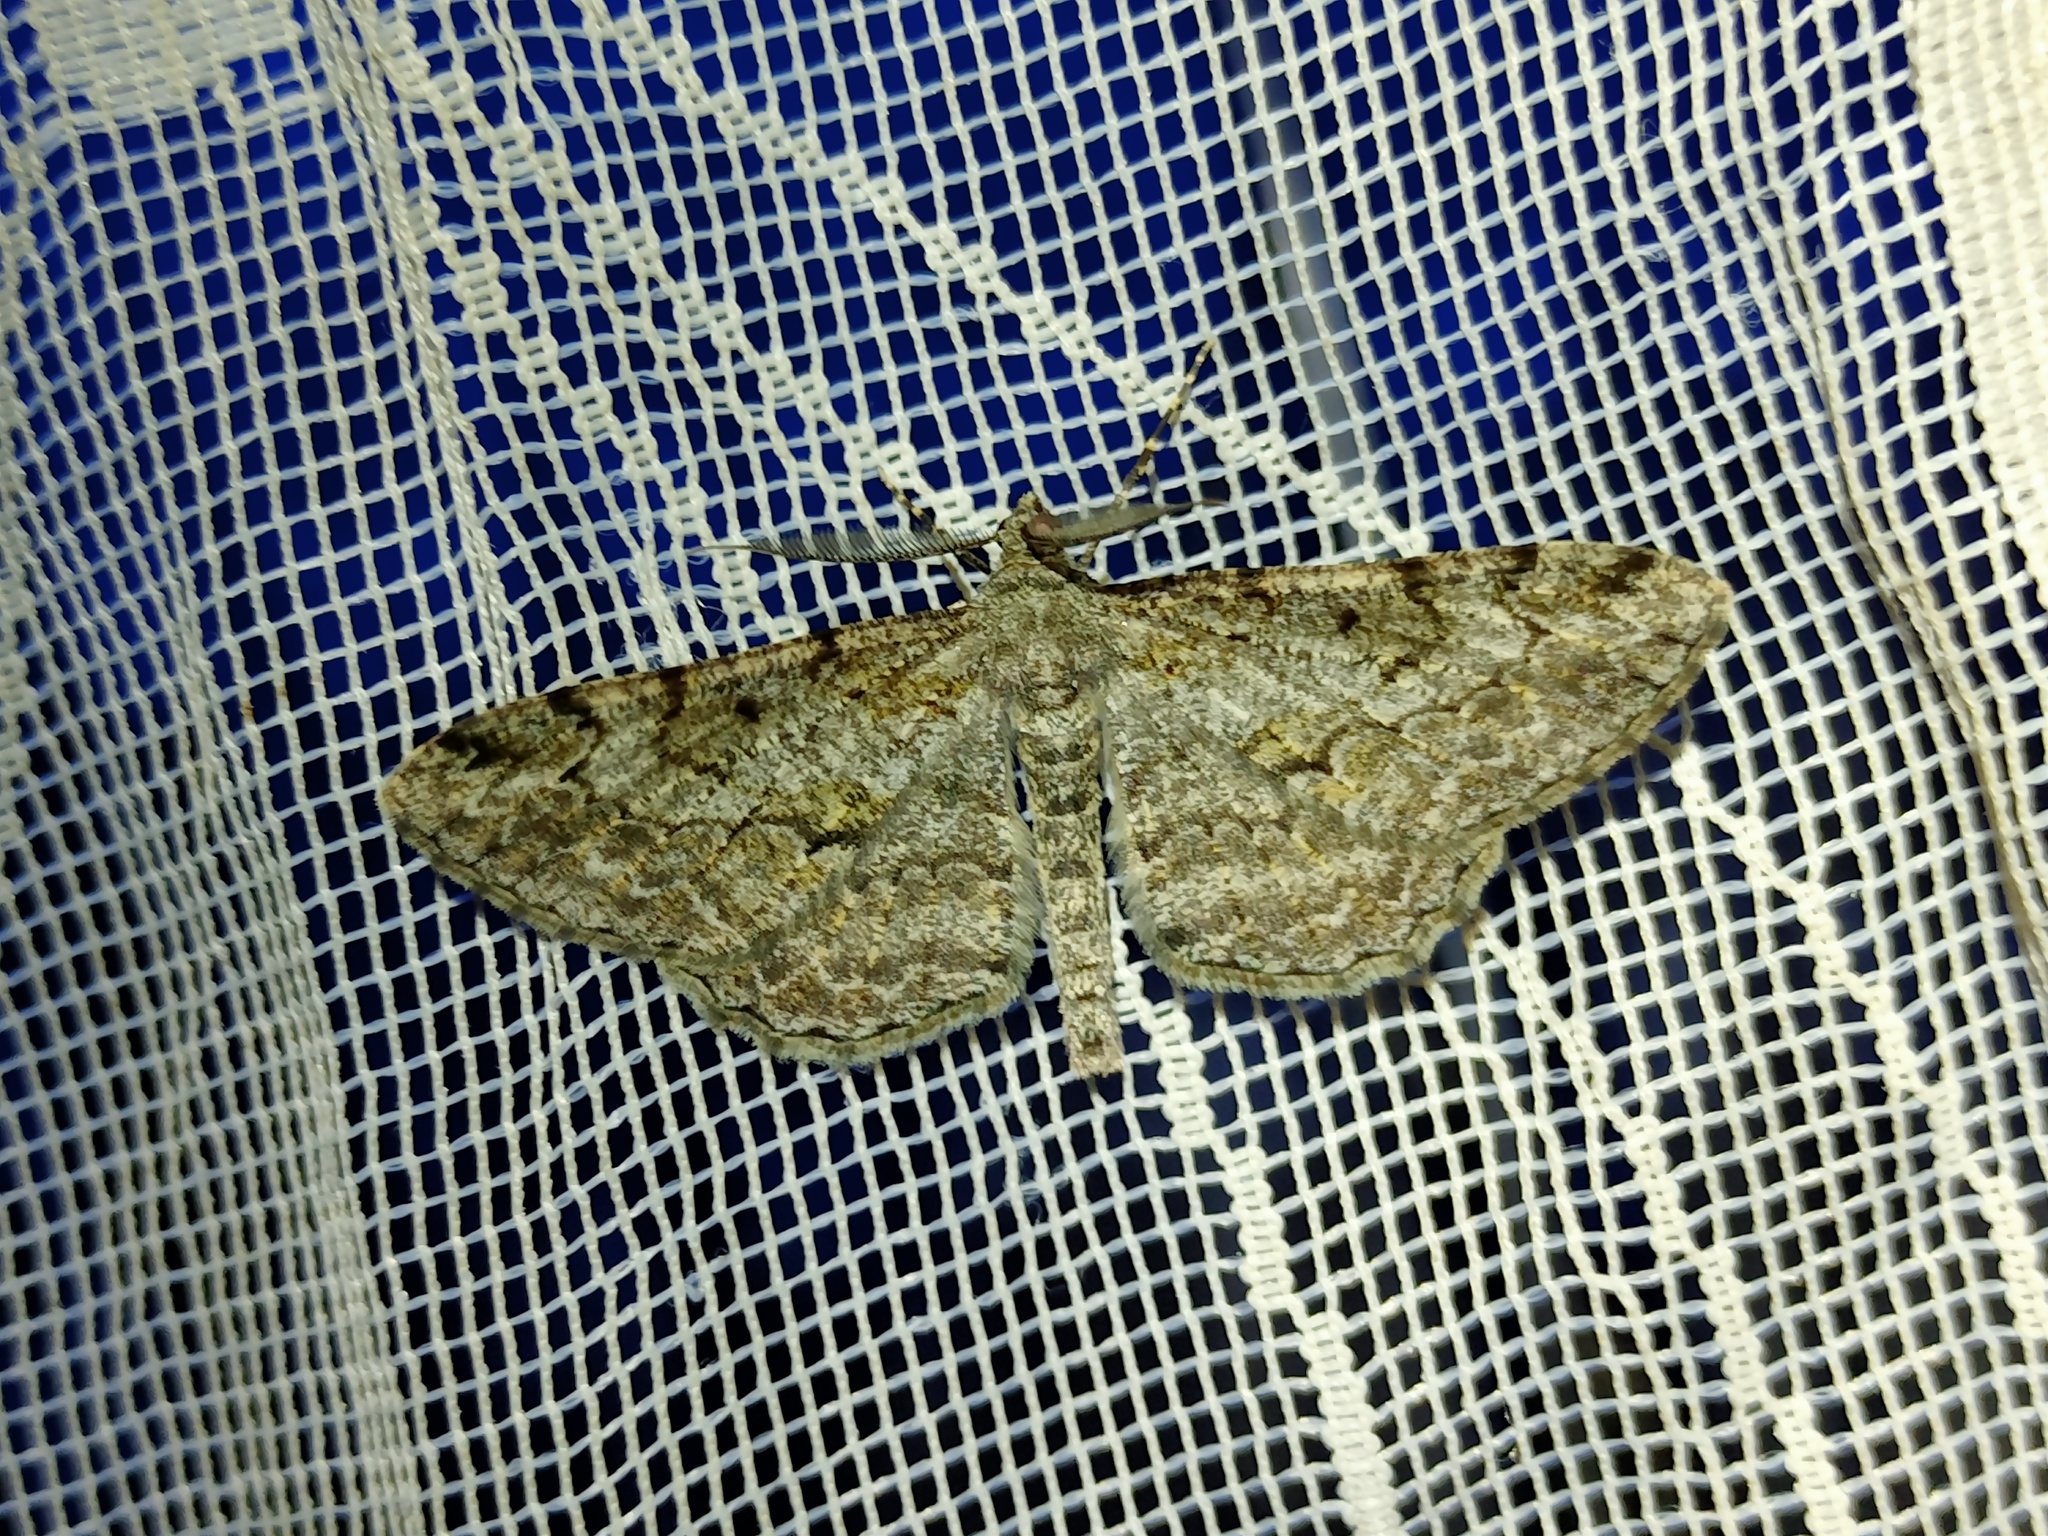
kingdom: Animalia
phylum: Arthropoda
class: Insecta
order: Lepidoptera
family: Geometridae
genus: Peribatodes
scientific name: Peribatodes rhomboidaria
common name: Willow beauty
